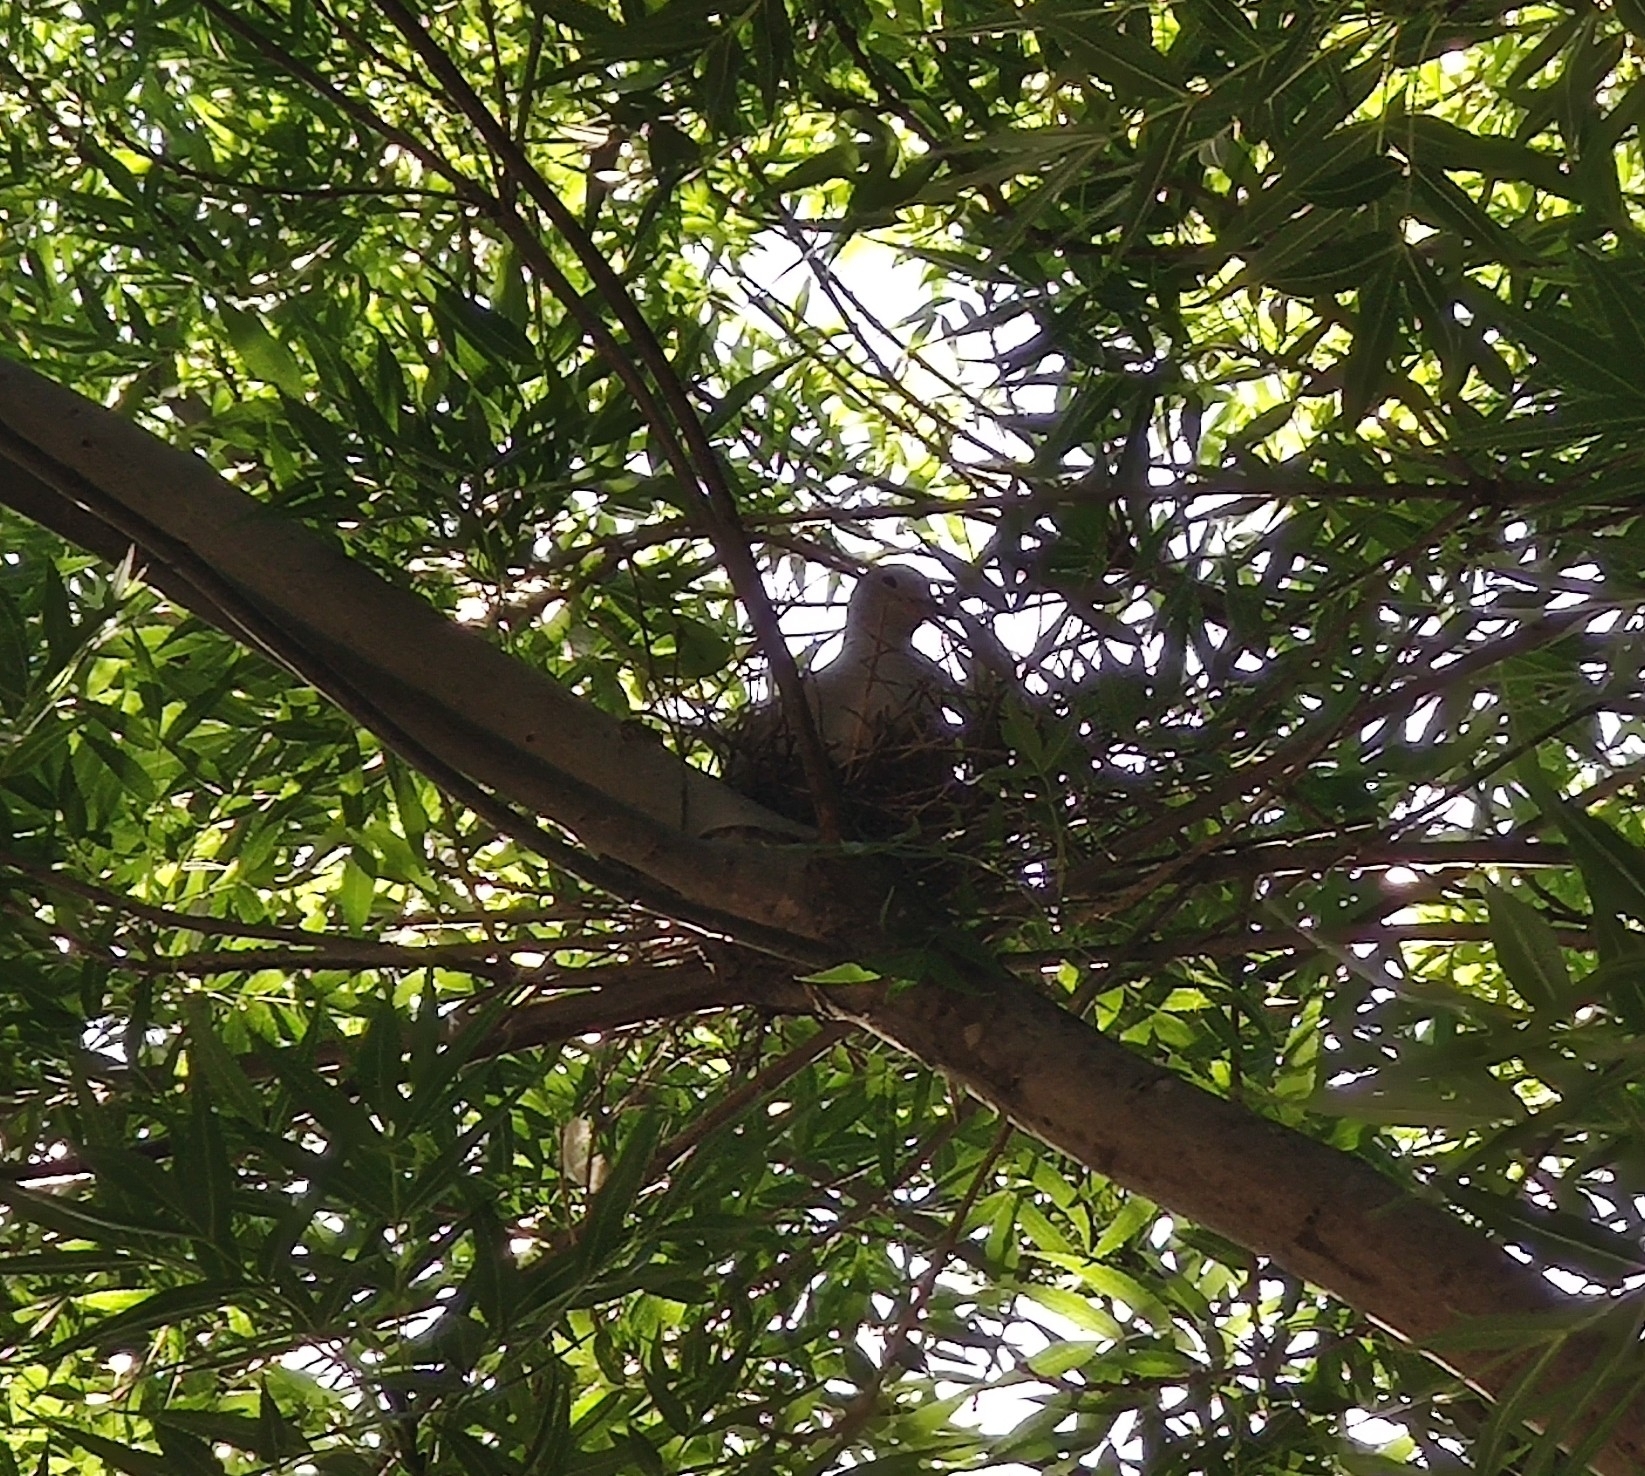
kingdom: Animalia
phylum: Chordata
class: Aves
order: Columbiformes
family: Columbidae
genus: Zenaida
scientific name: Zenaida macroura
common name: Mourning dove
